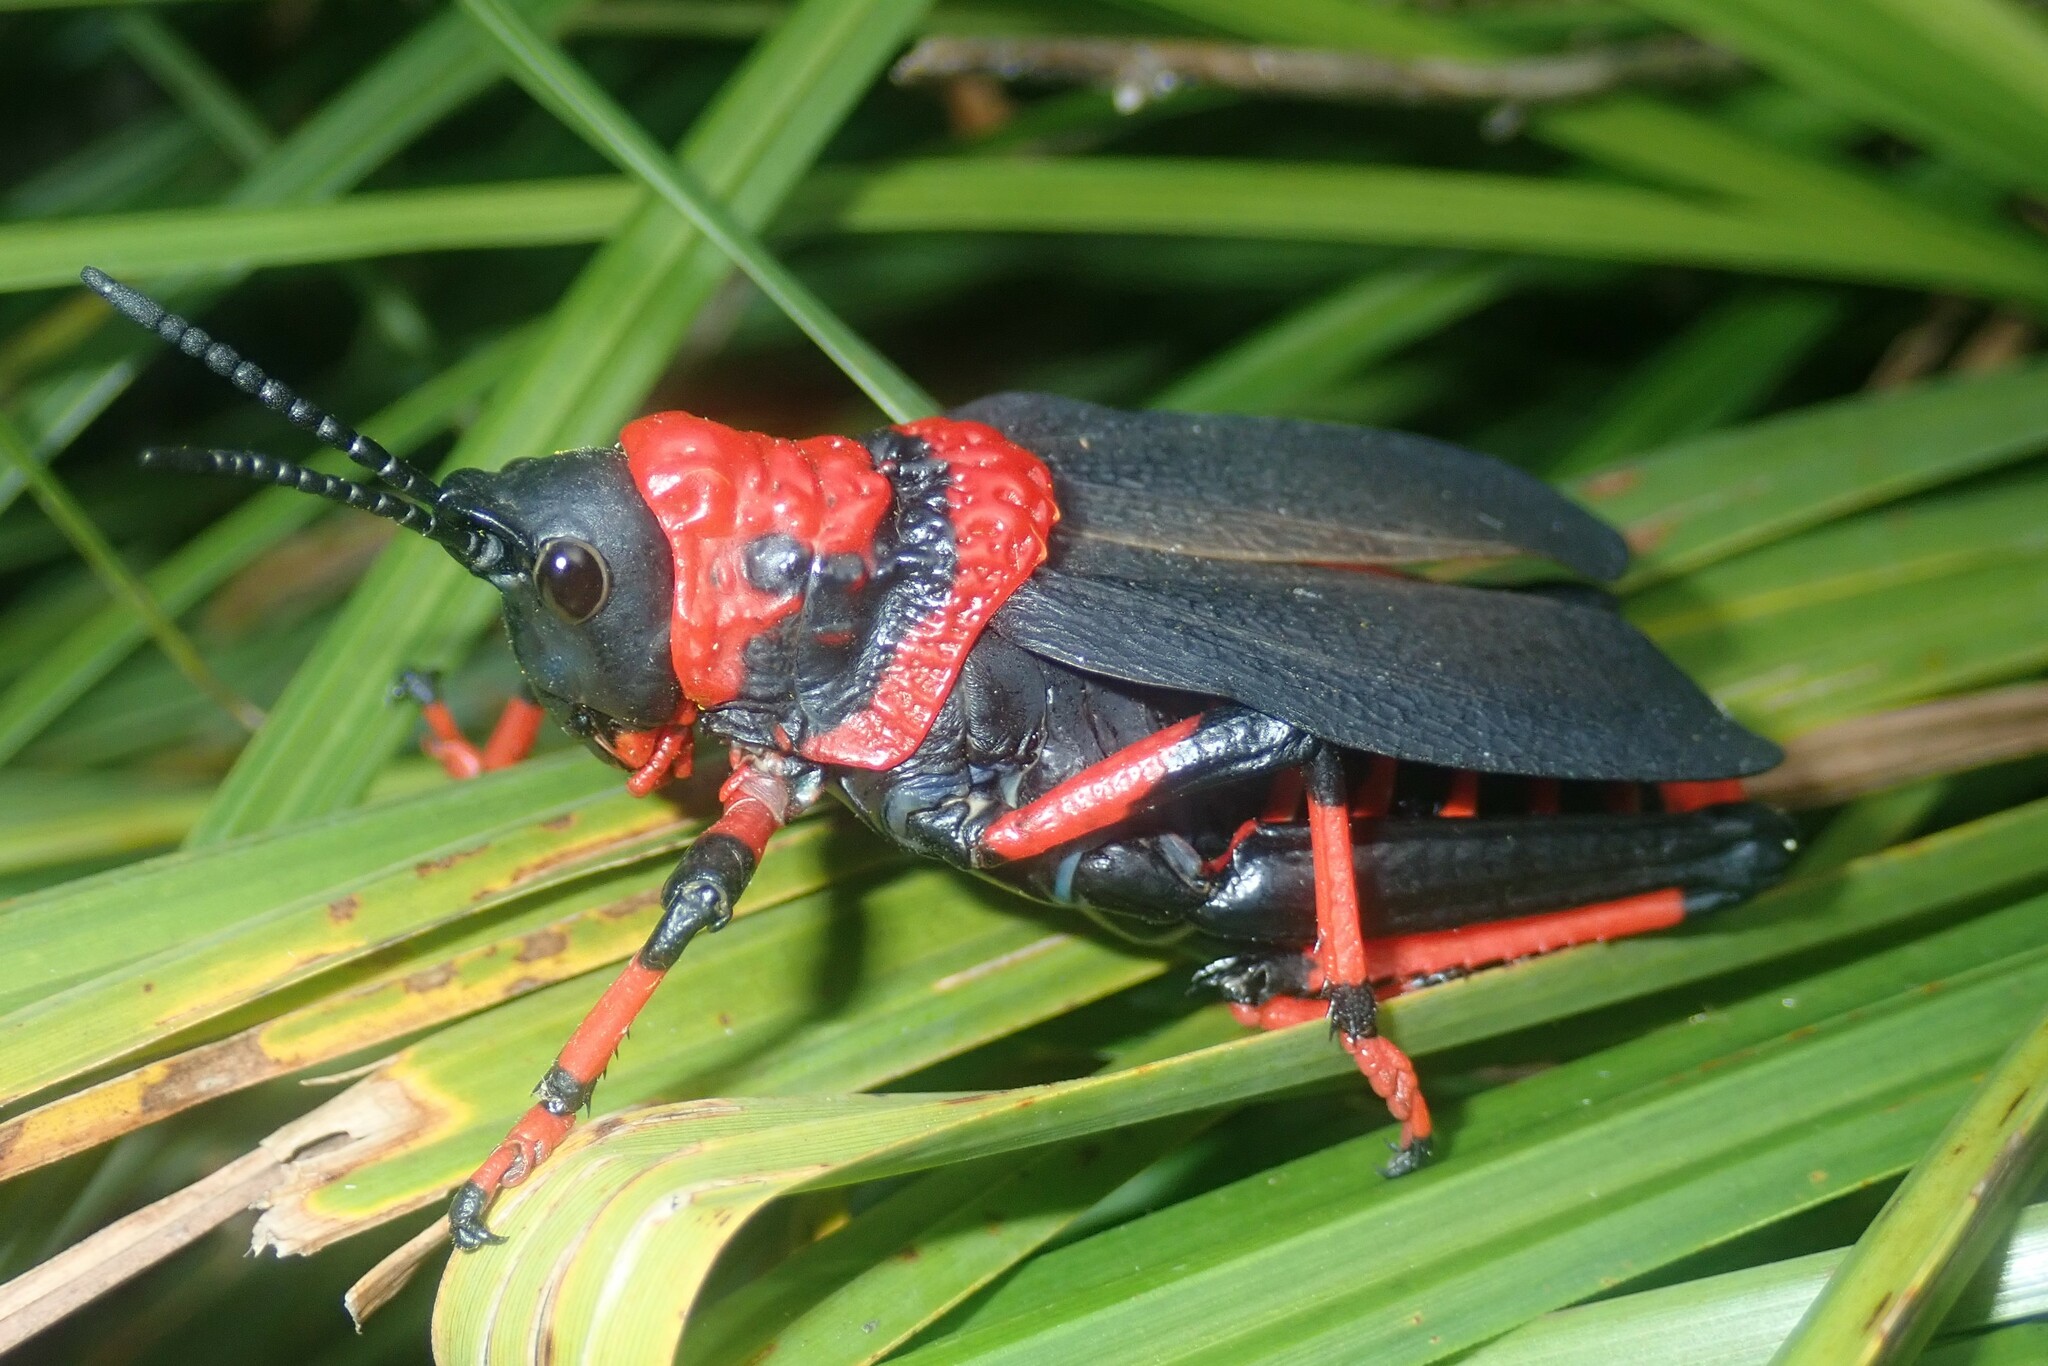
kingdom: Animalia
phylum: Arthropoda
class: Insecta
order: Orthoptera
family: Pyrgomorphidae
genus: Dictyophorus
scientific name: Dictyophorus spumans
